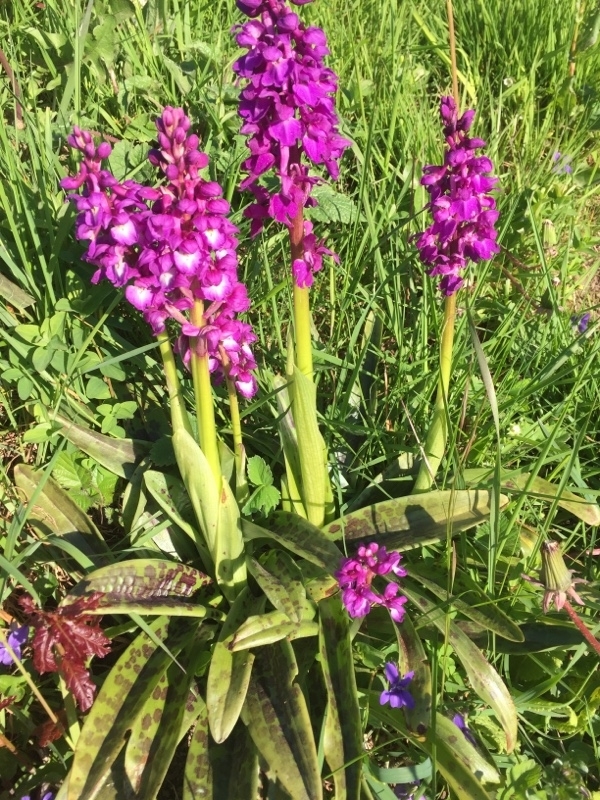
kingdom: Plantae
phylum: Tracheophyta
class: Liliopsida
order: Asparagales
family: Orchidaceae
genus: Orchis
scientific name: Orchis mascula
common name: Early-purple orchid
